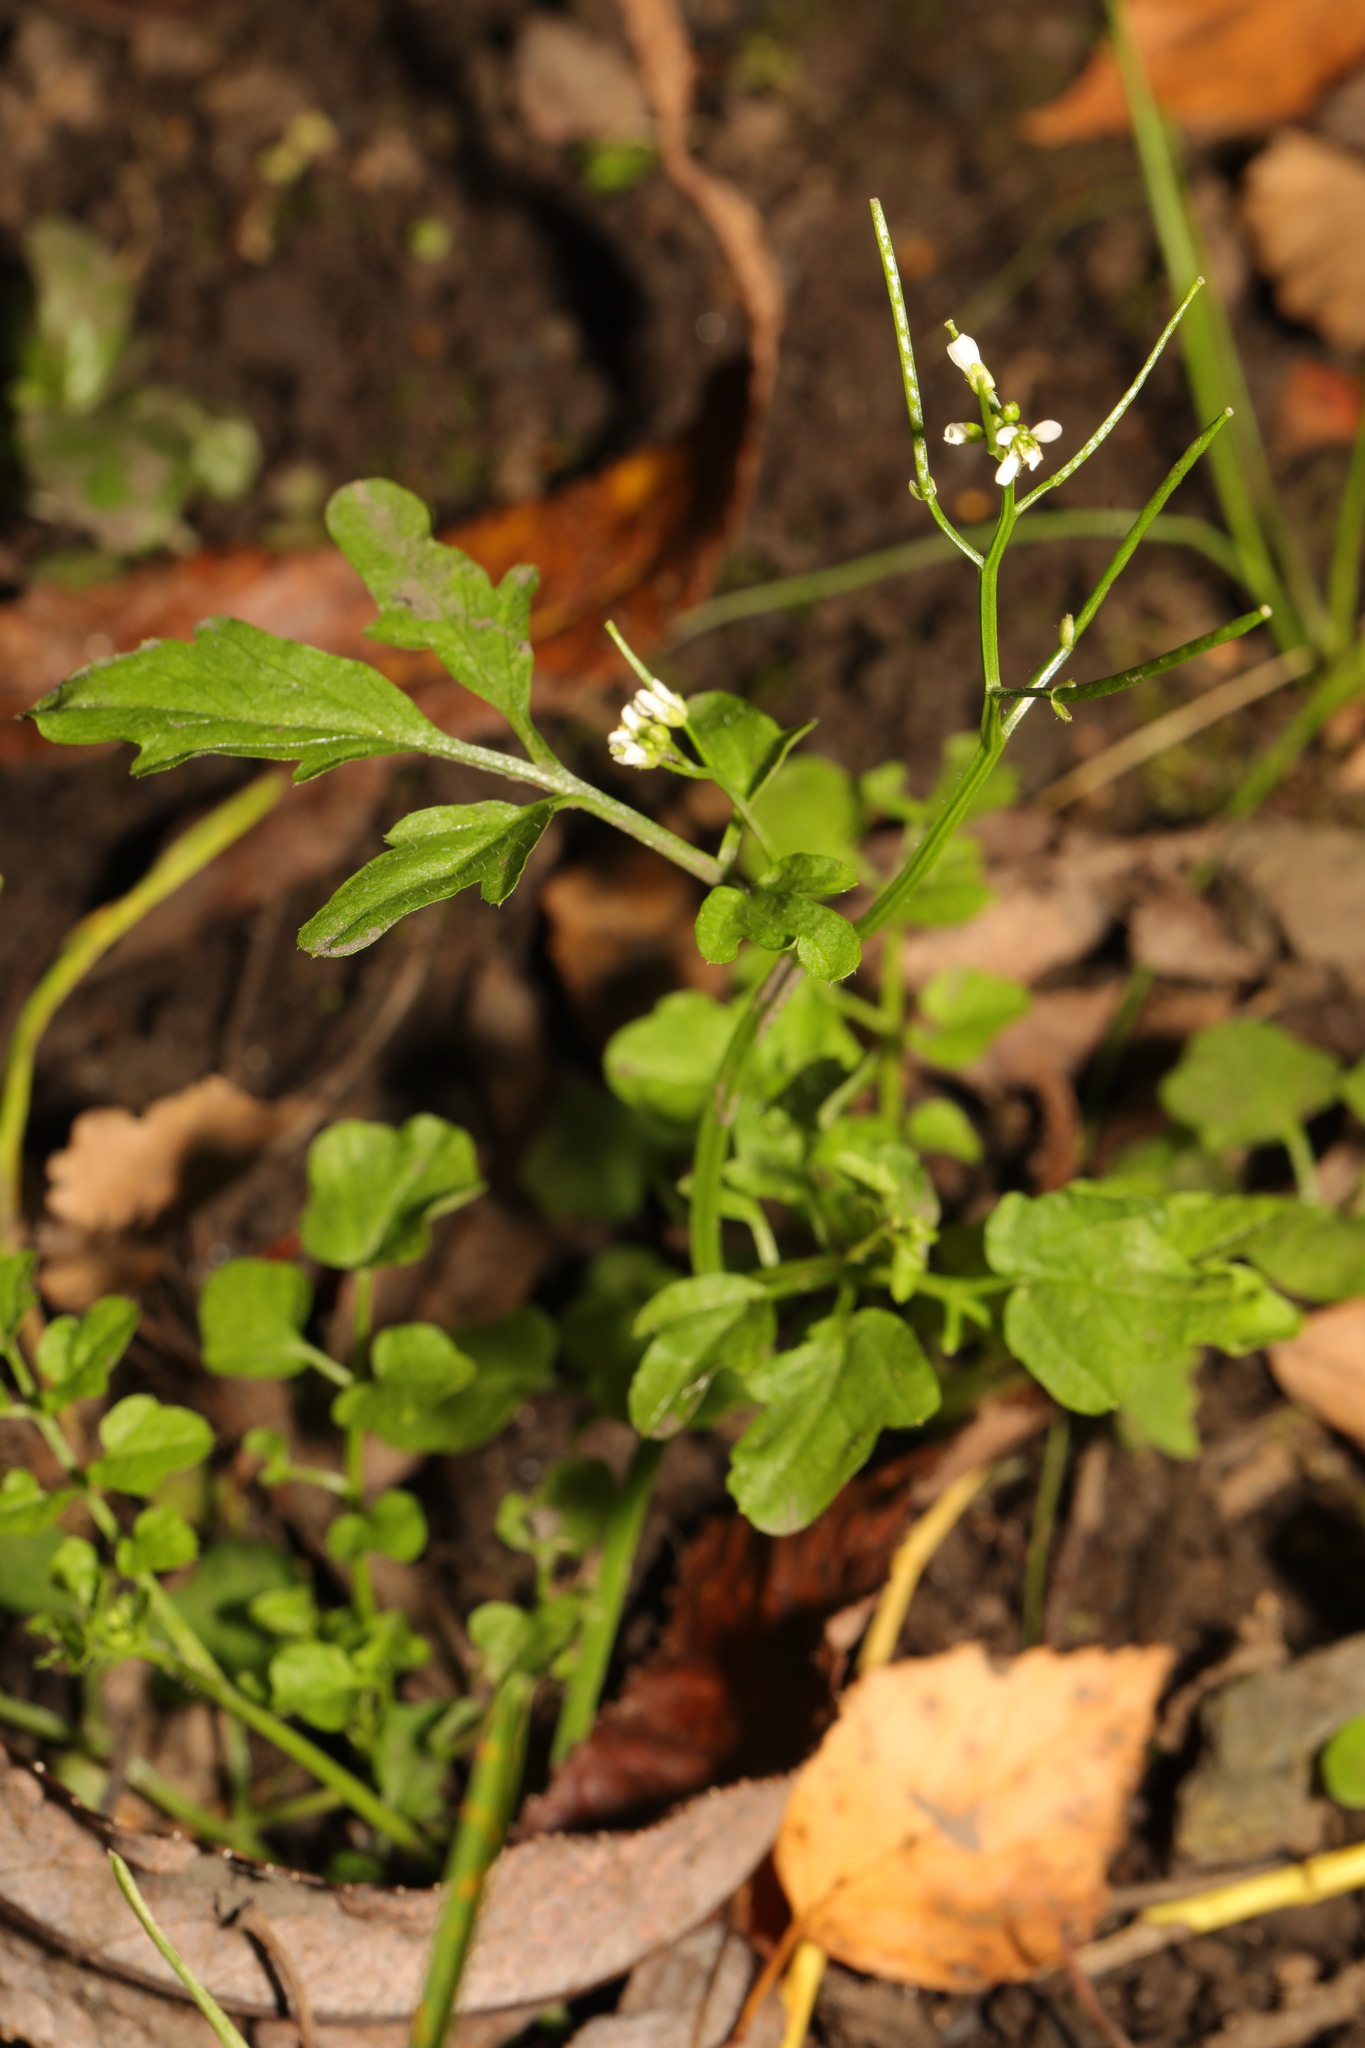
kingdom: Plantae
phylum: Tracheophyta
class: Magnoliopsida
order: Brassicales
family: Brassicaceae
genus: Cardamine
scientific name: Cardamine flexuosa
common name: Woodland bittercress
